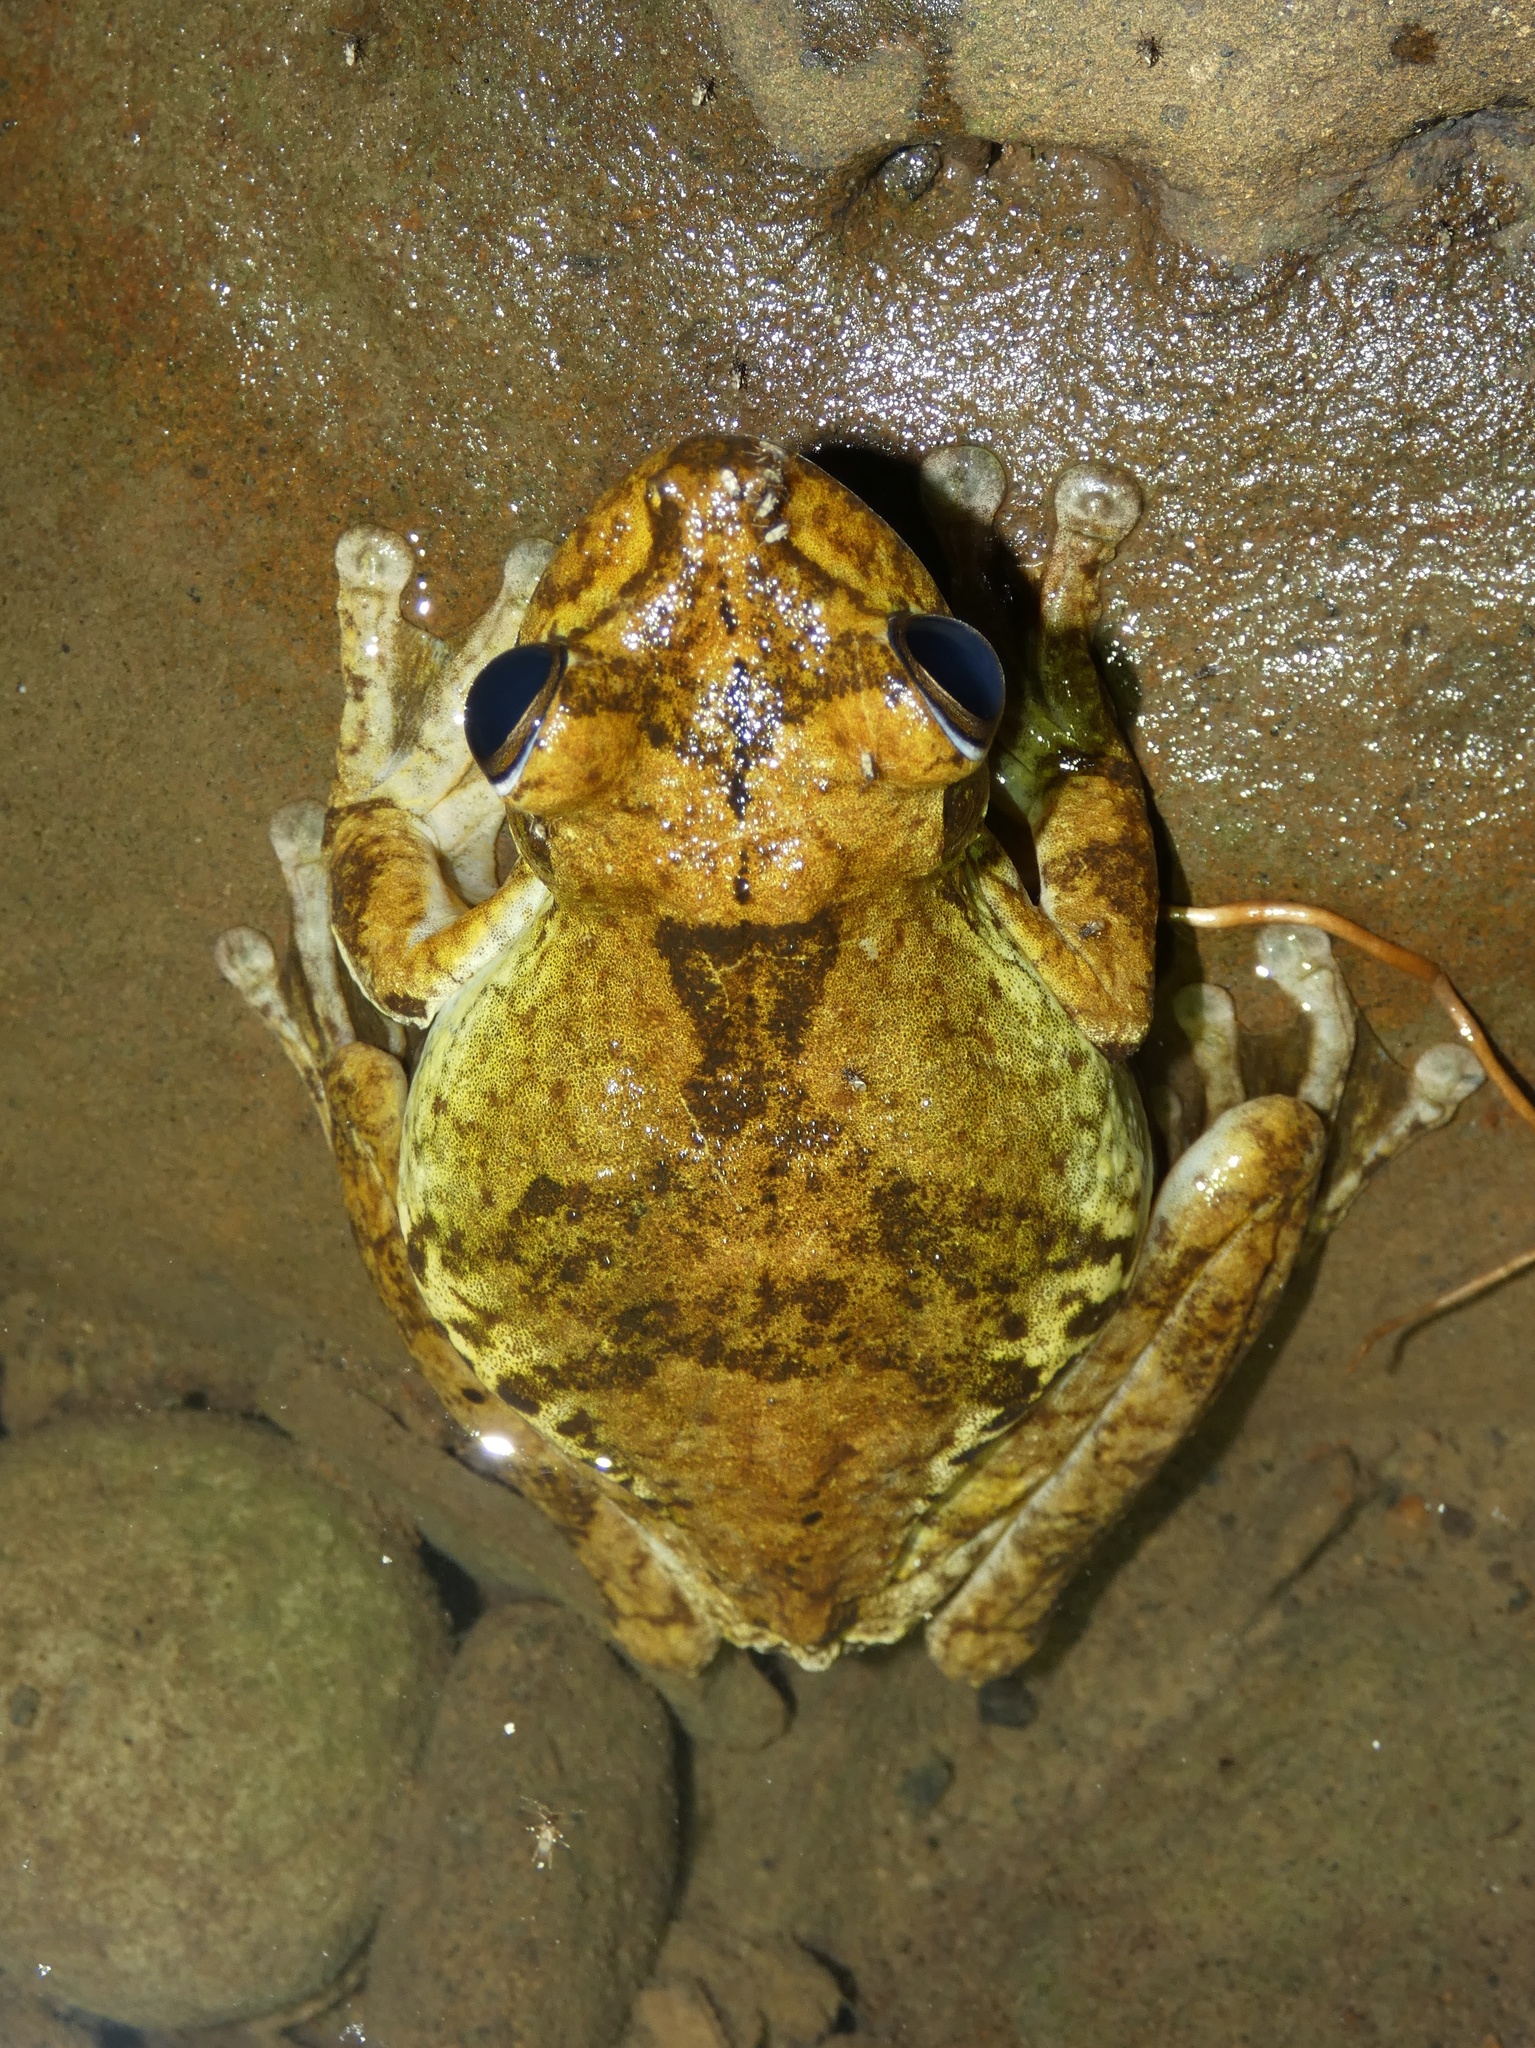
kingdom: Animalia
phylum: Chordata
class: Amphibia
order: Anura
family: Hylidae
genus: Boana
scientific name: Boana rosenbergi
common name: Rosenberg´s gladiator treefrog
